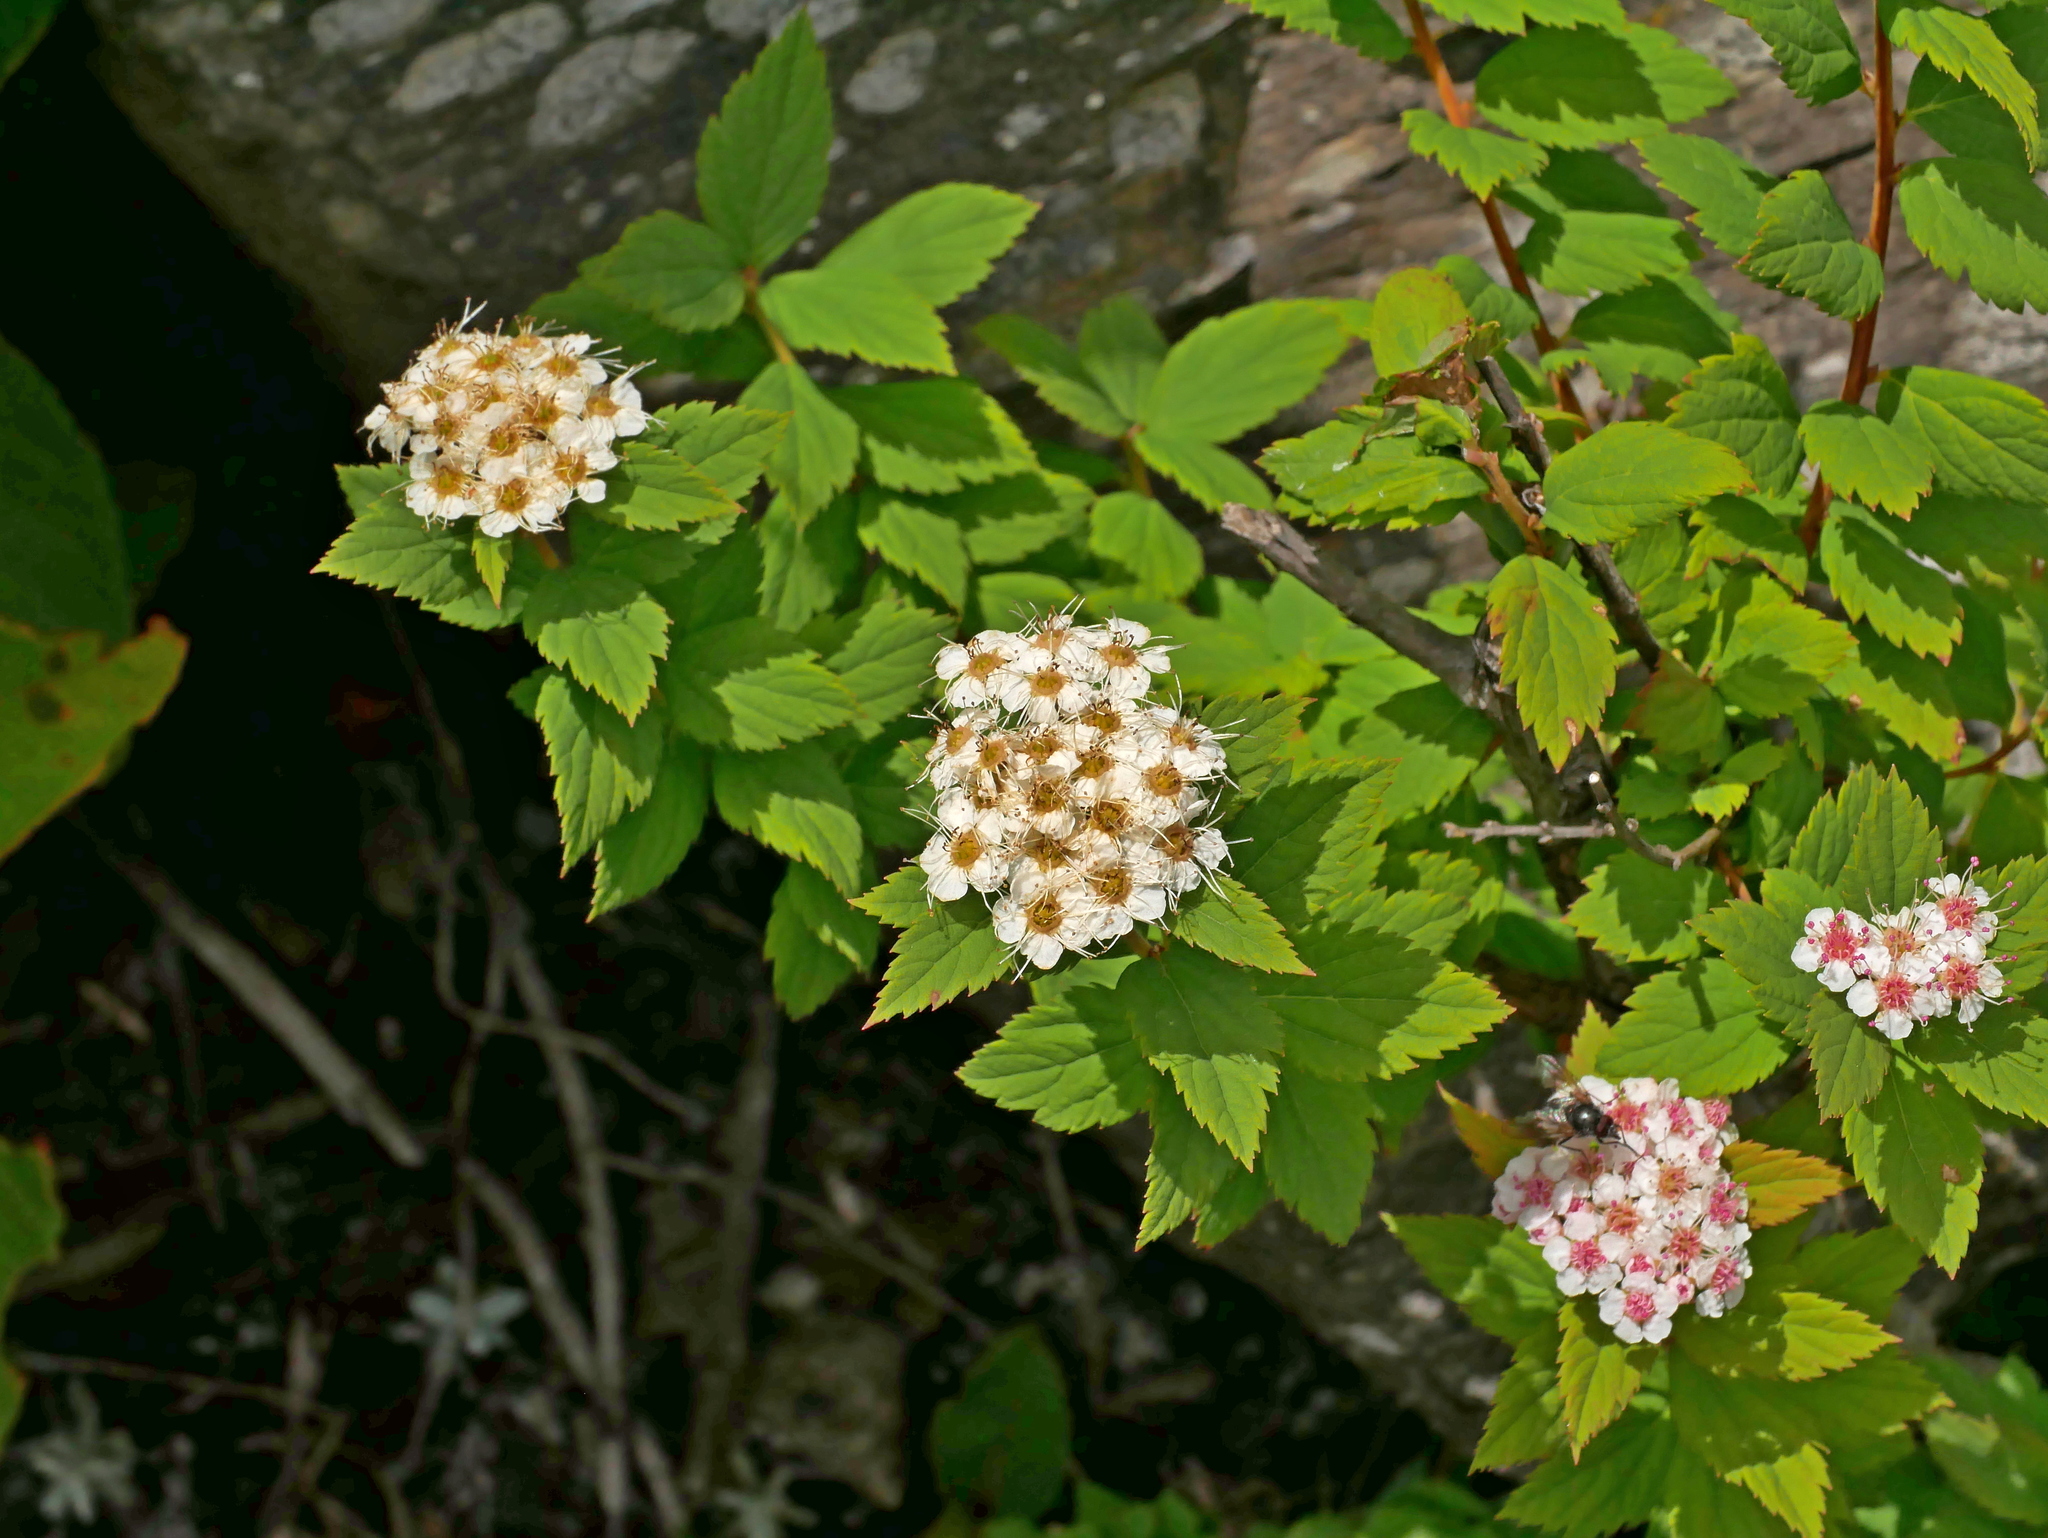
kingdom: Plantae
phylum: Tracheophyta
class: Magnoliopsida
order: Rosales
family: Rosaceae
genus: Spiraea
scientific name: Spiraea morrisonicola
